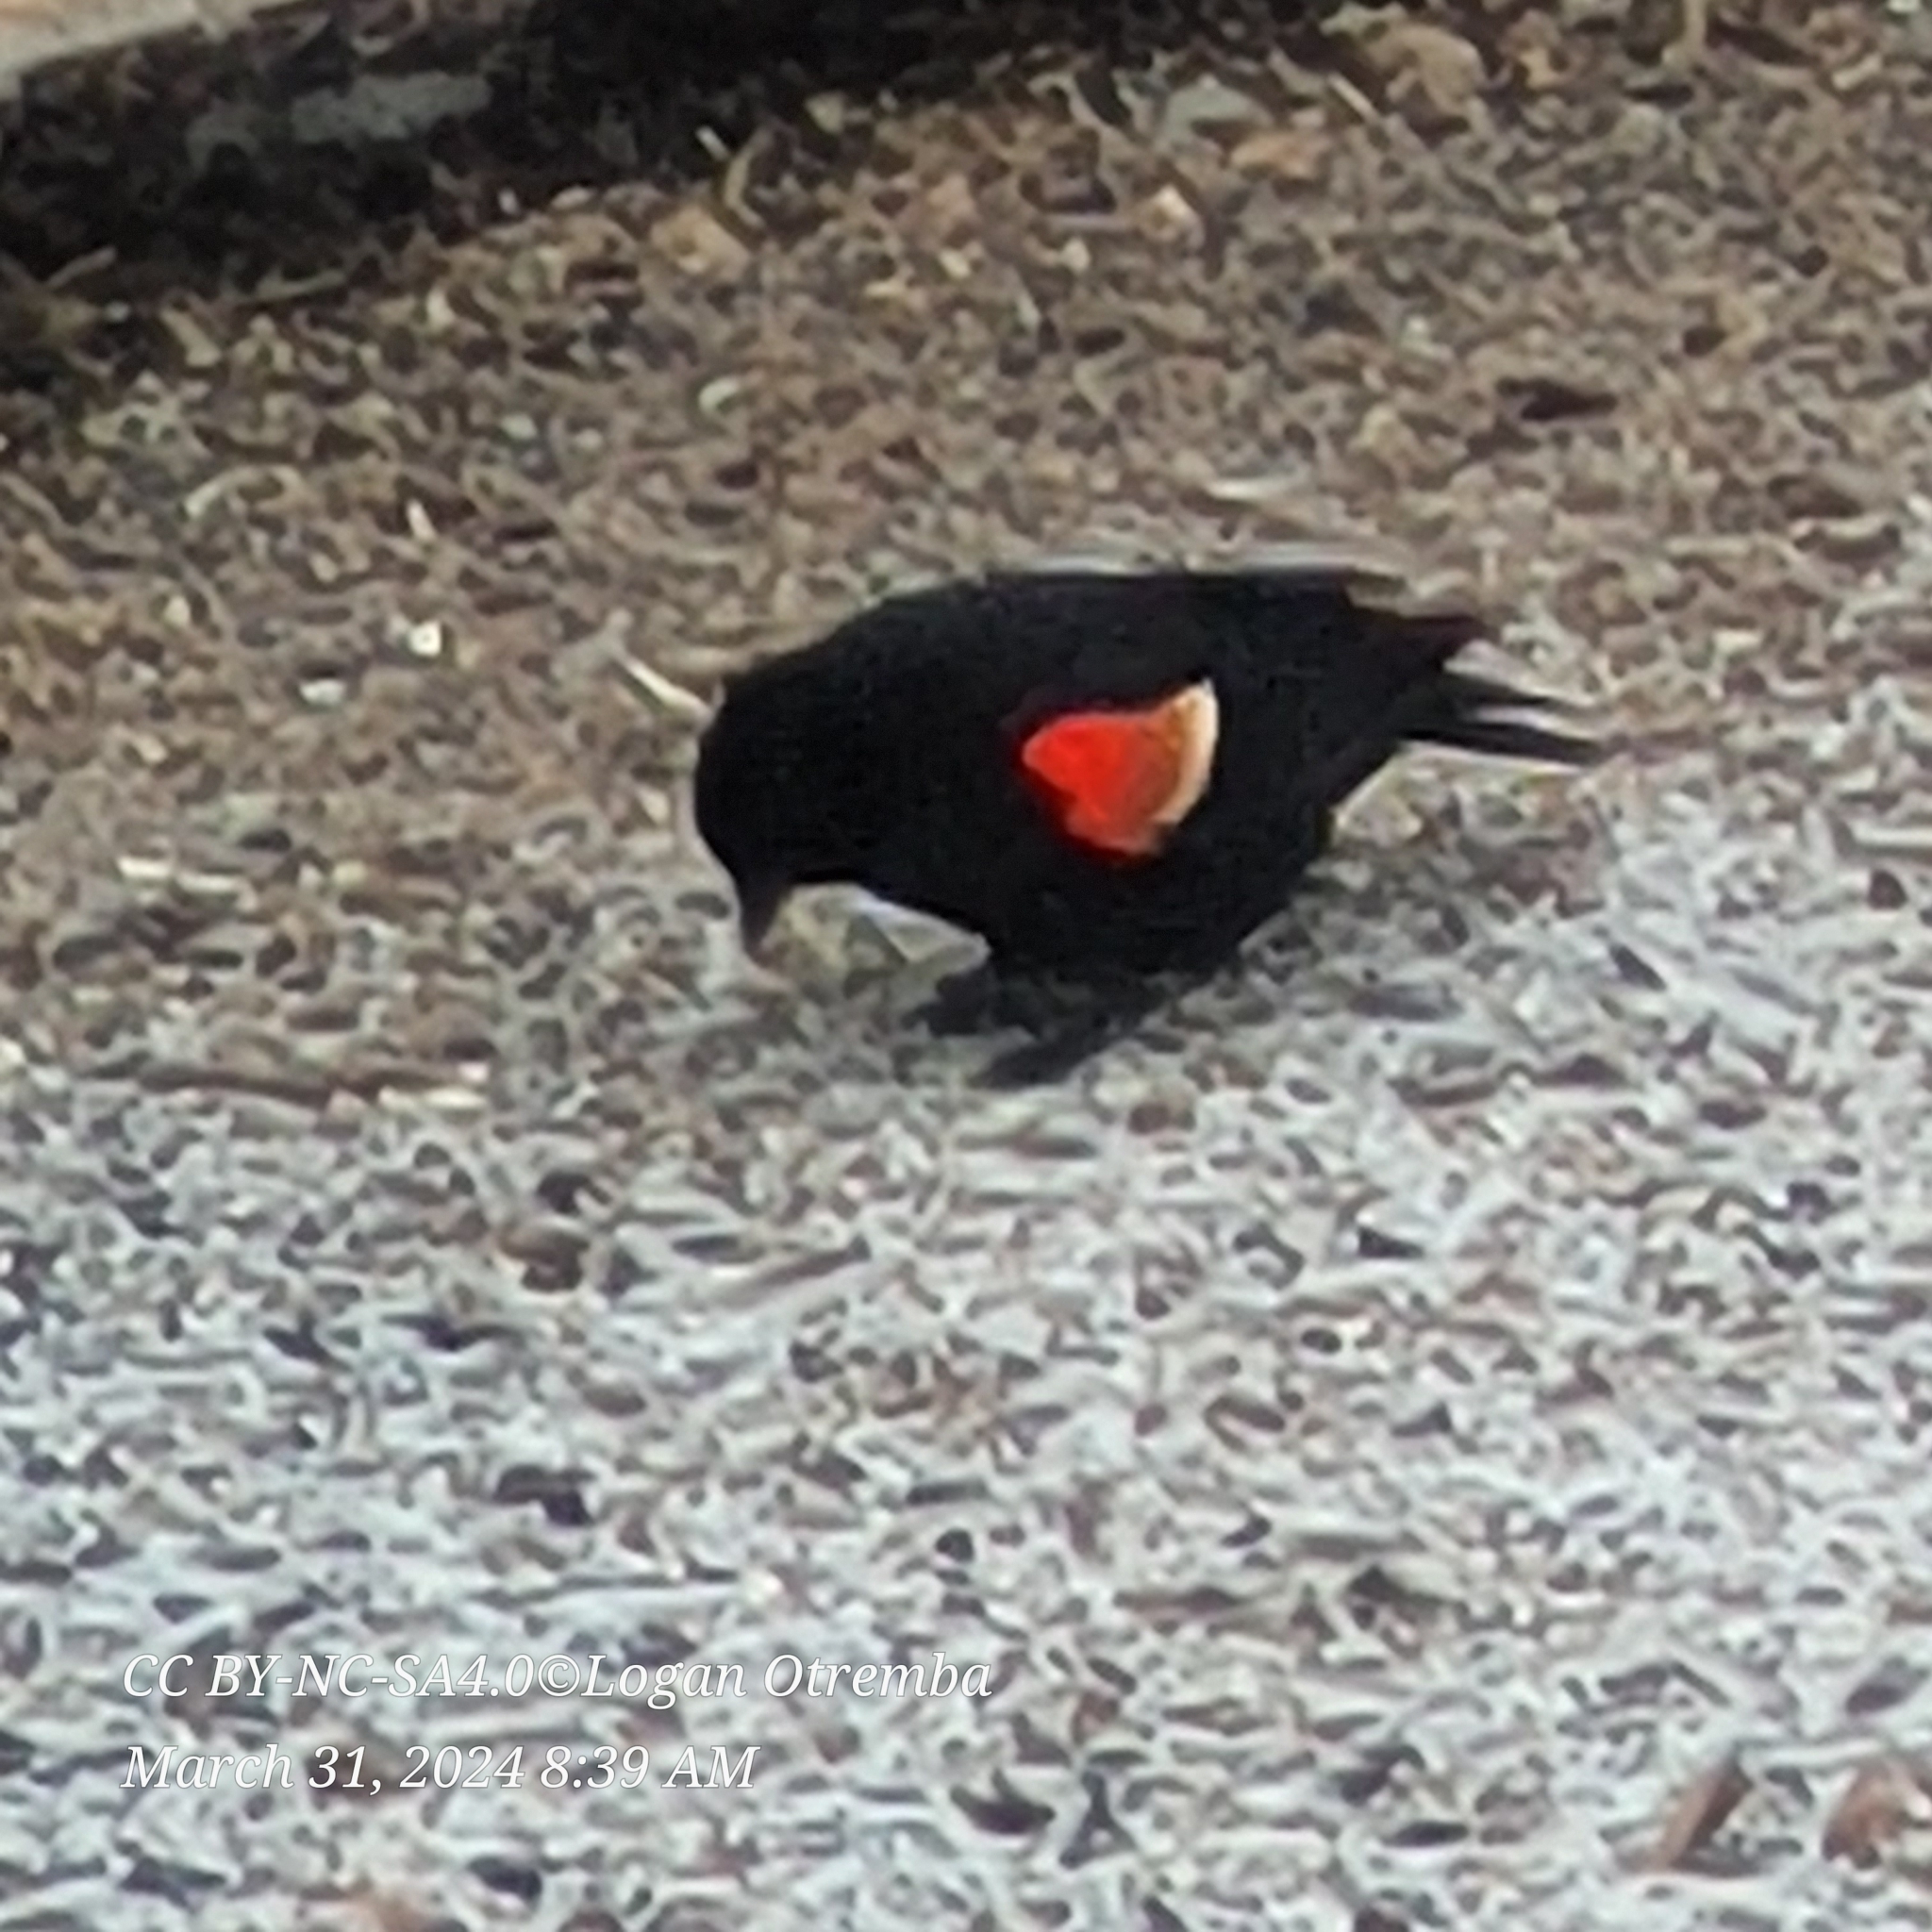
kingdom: Animalia
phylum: Chordata
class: Aves
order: Passeriformes
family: Icteridae
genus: Agelaius
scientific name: Agelaius phoeniceus
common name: Red-winged blackbird
